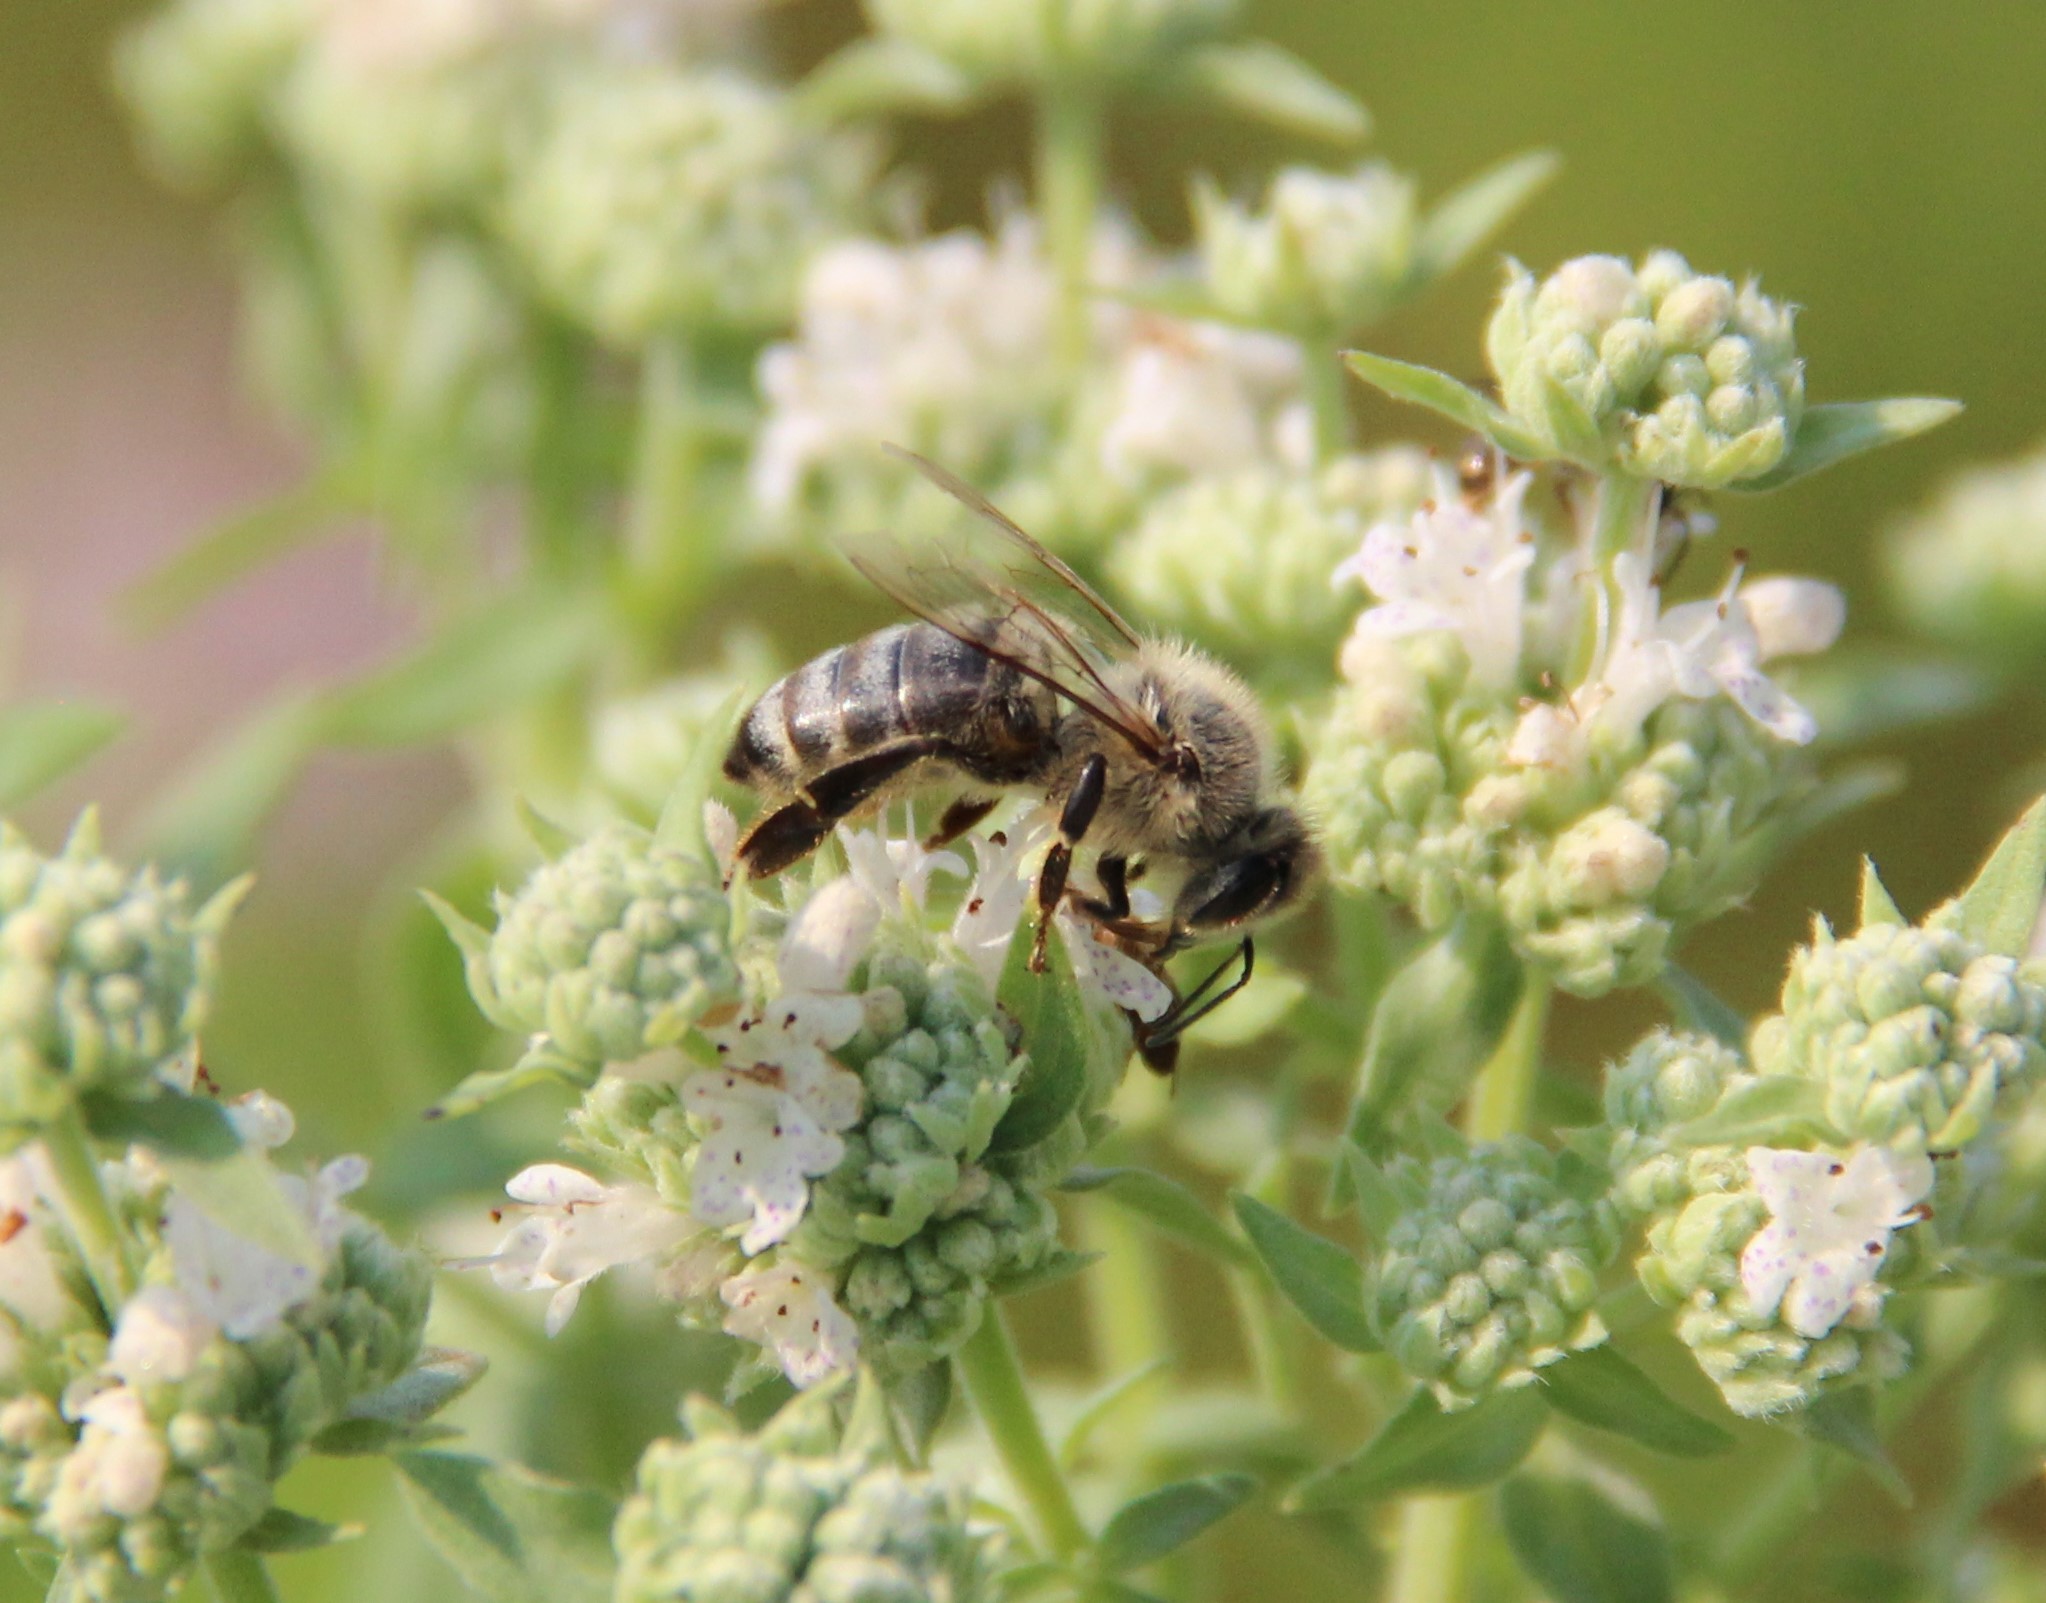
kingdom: Animalia
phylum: Arthropoda
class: Insecta
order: Hymenoptera
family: Apidae
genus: Apis
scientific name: Apis mellifera
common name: Honey bee
